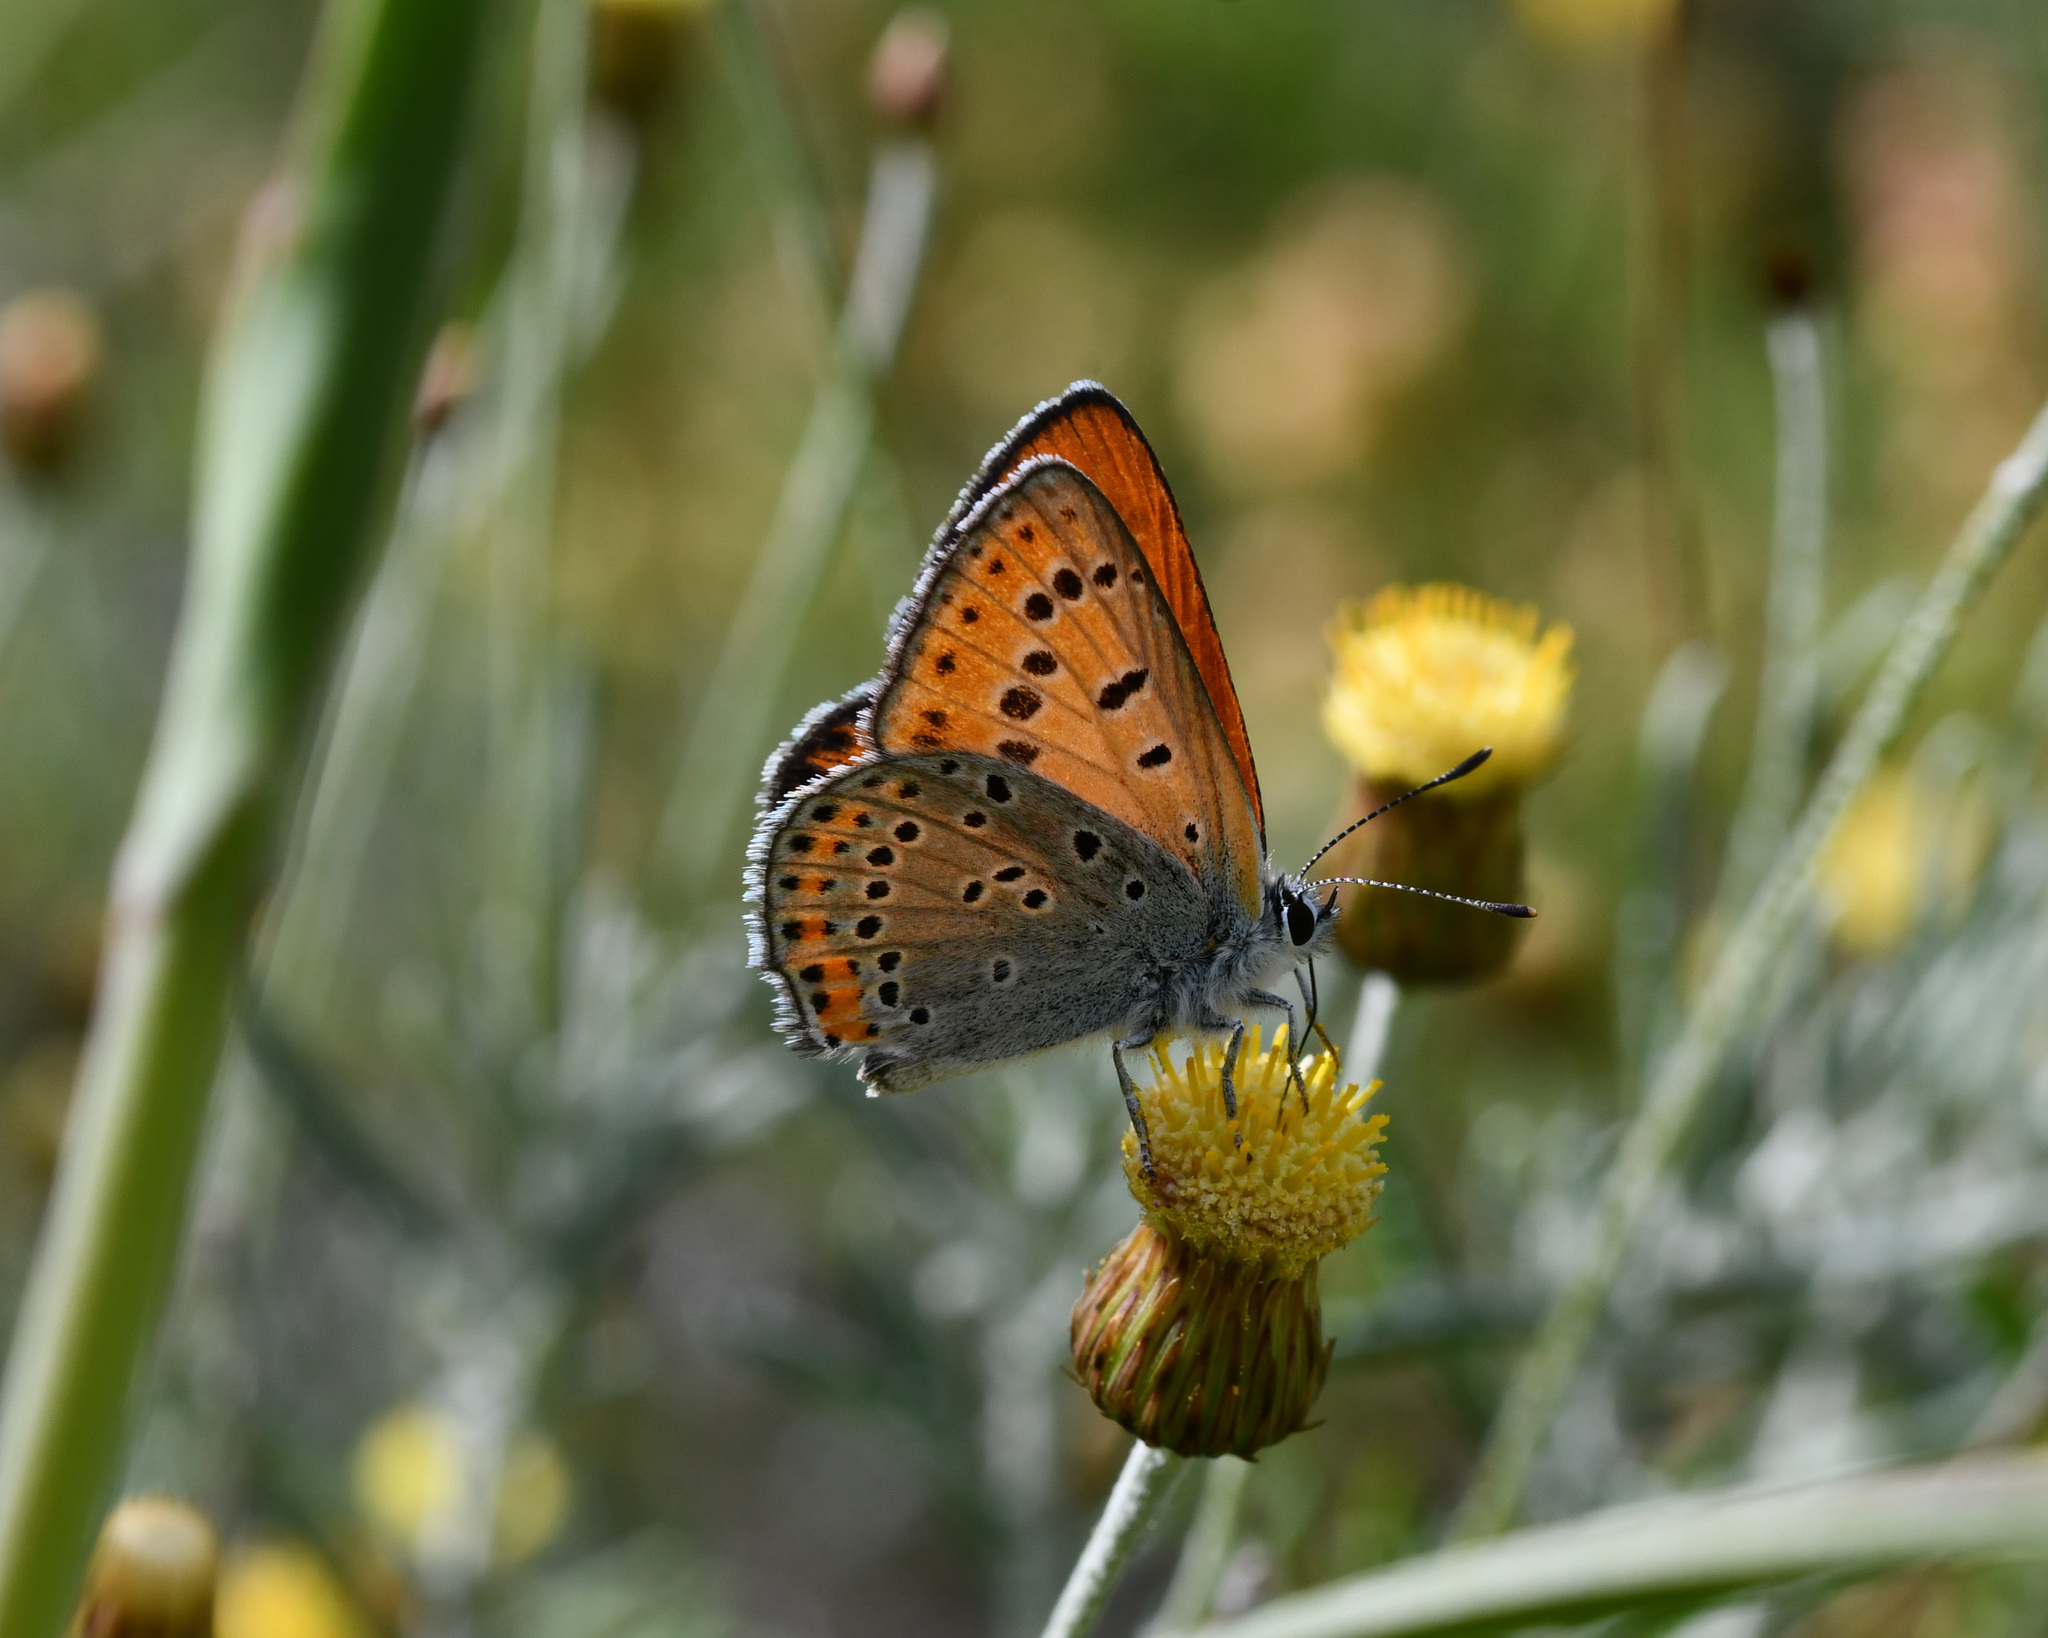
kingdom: Animalia
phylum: Arthropoda
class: Insecta
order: Lepidoptera
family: Lycaenidae
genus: Thersamonia
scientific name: Thersamonia thersamon
